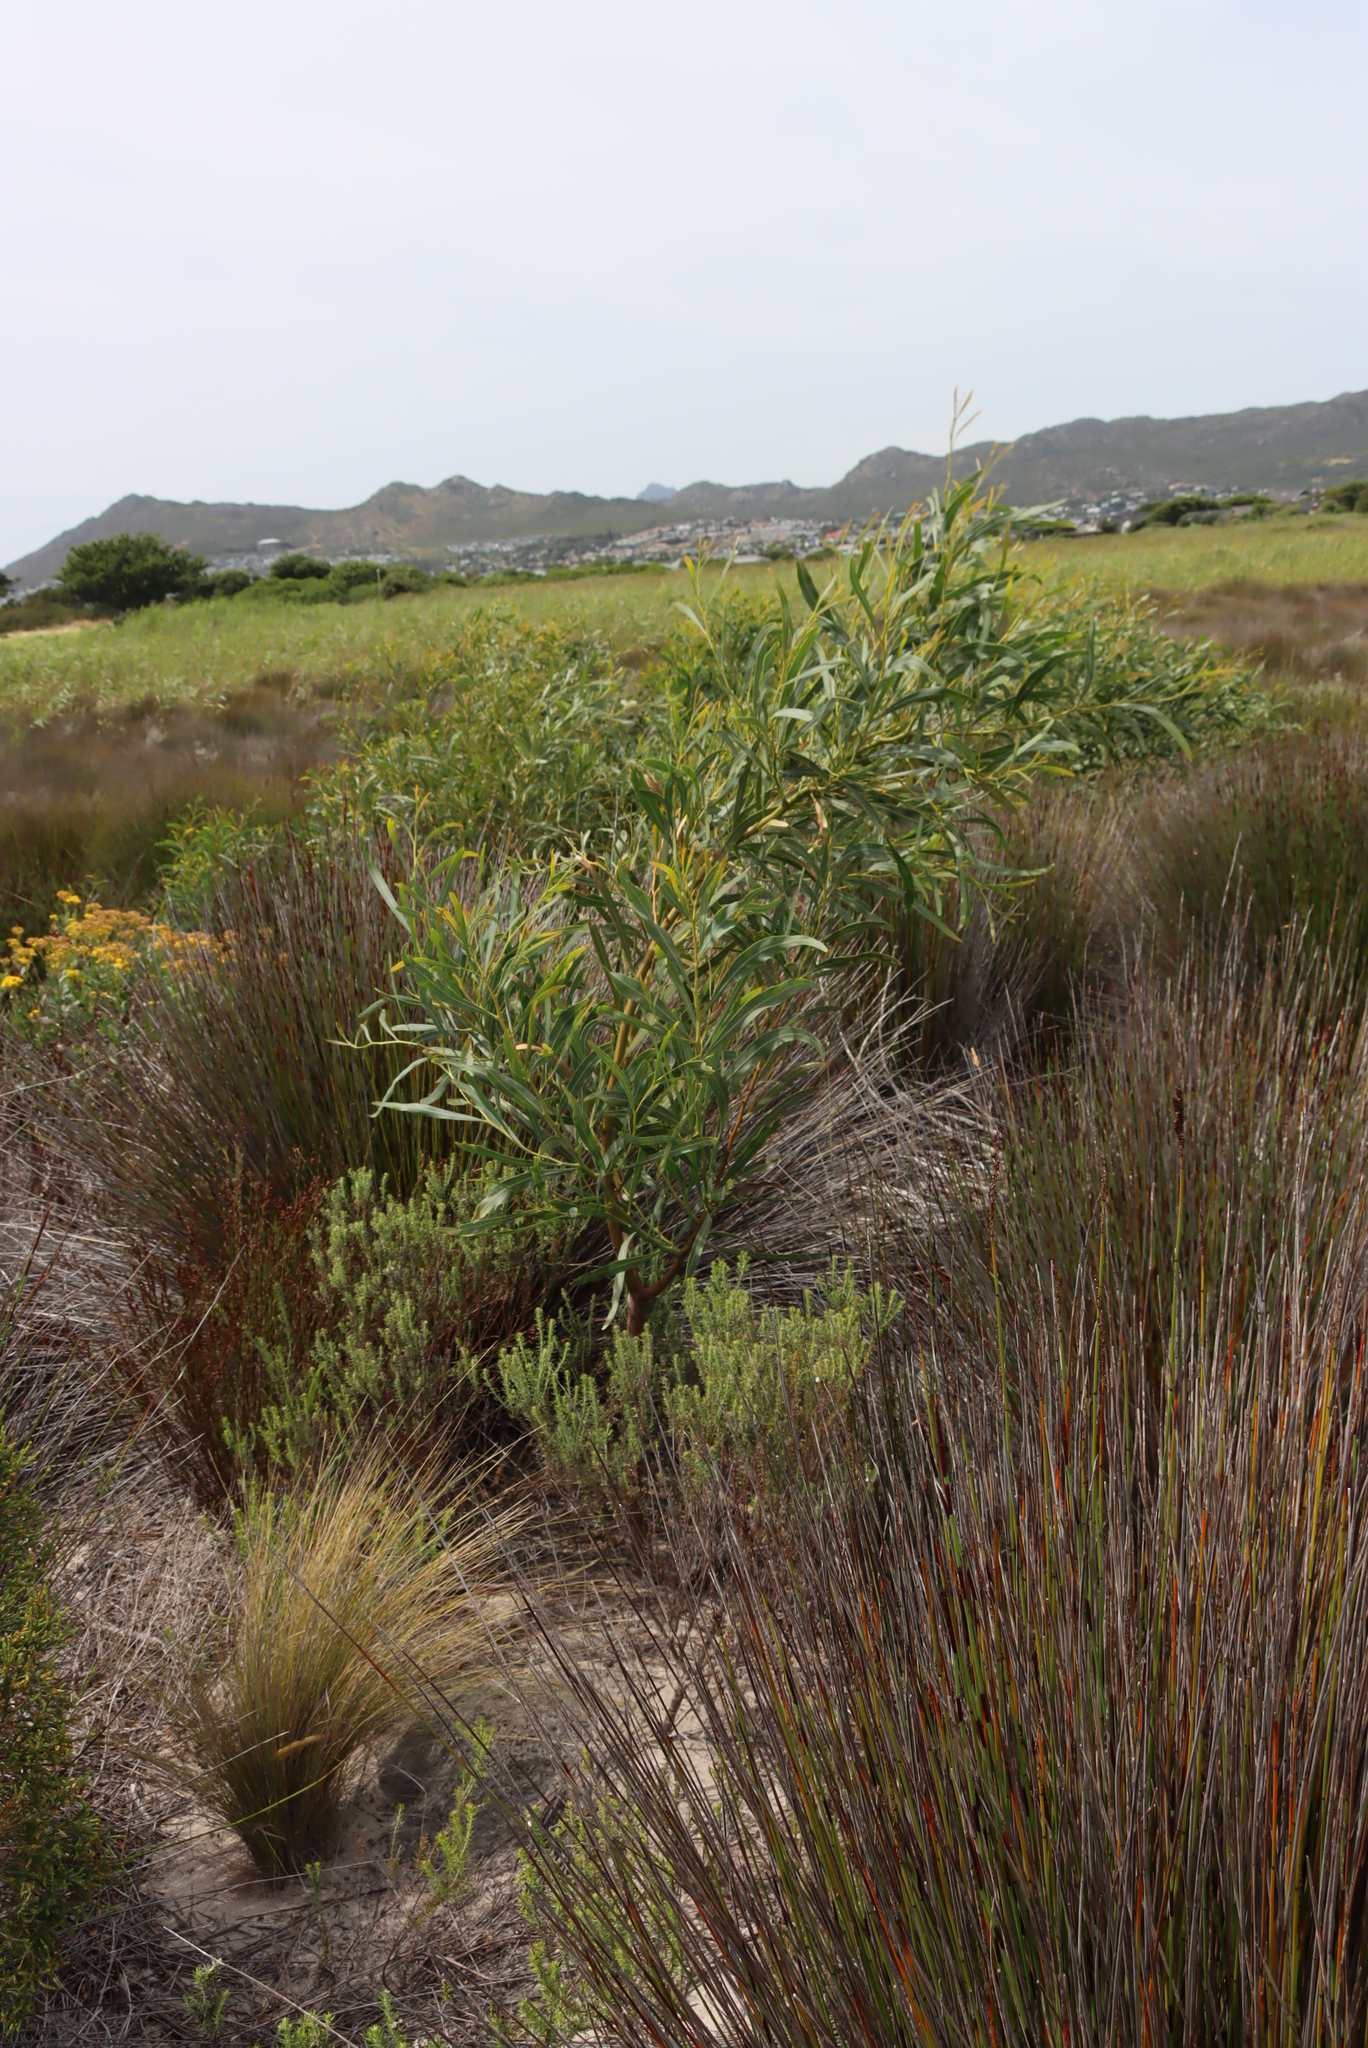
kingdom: Plantae
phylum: Tracheophyta
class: Magnoliopsida
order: Fabales
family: Fabaceae
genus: Acacia
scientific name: Acacia saligna
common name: Orange wattle
